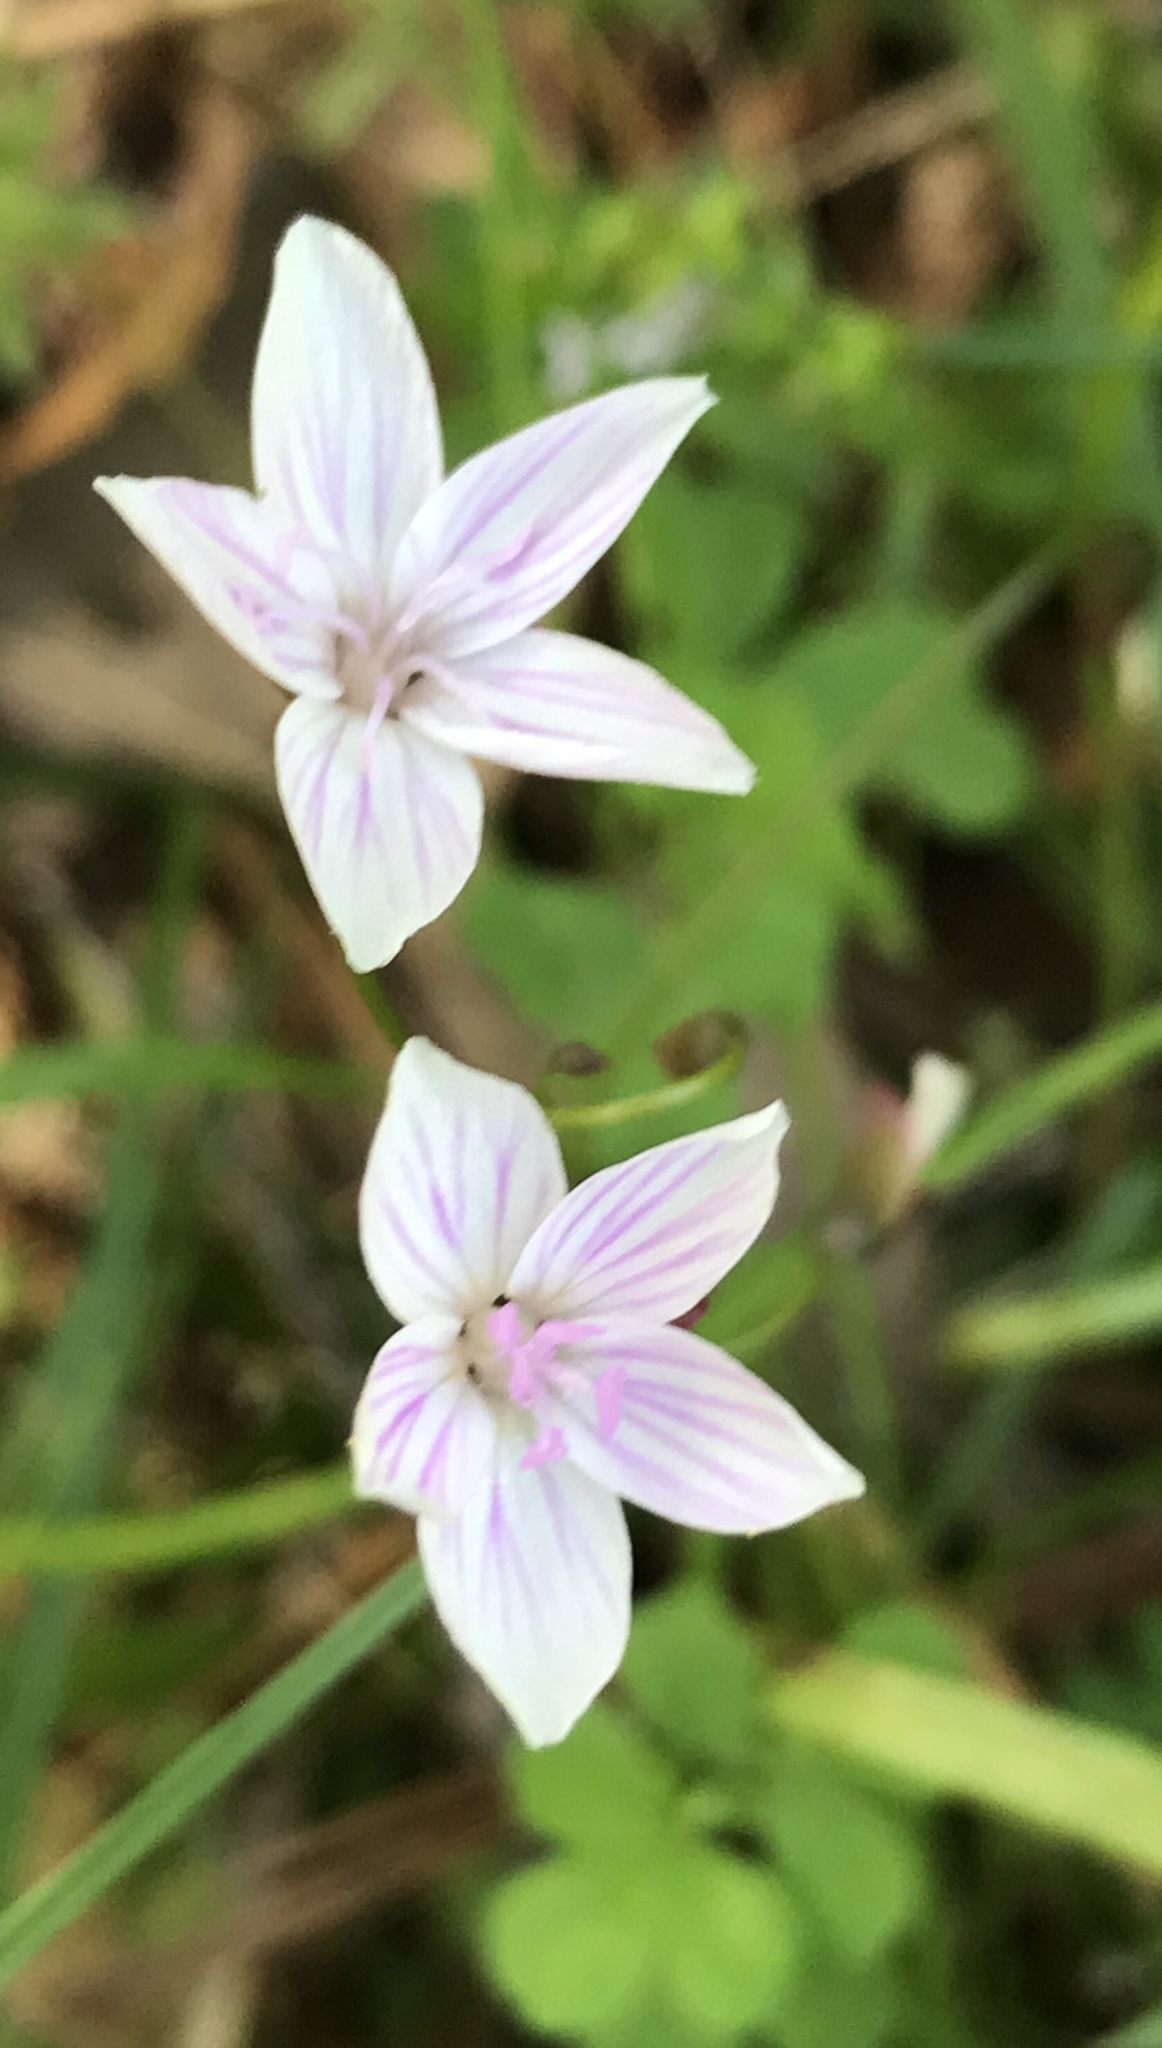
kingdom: Plantae
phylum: Tracheophyta
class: Magnoliopsida
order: Caryophyllales
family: Montiaceae
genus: Claytonia
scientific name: Claytonia virginica
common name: Virginia springbeauty
